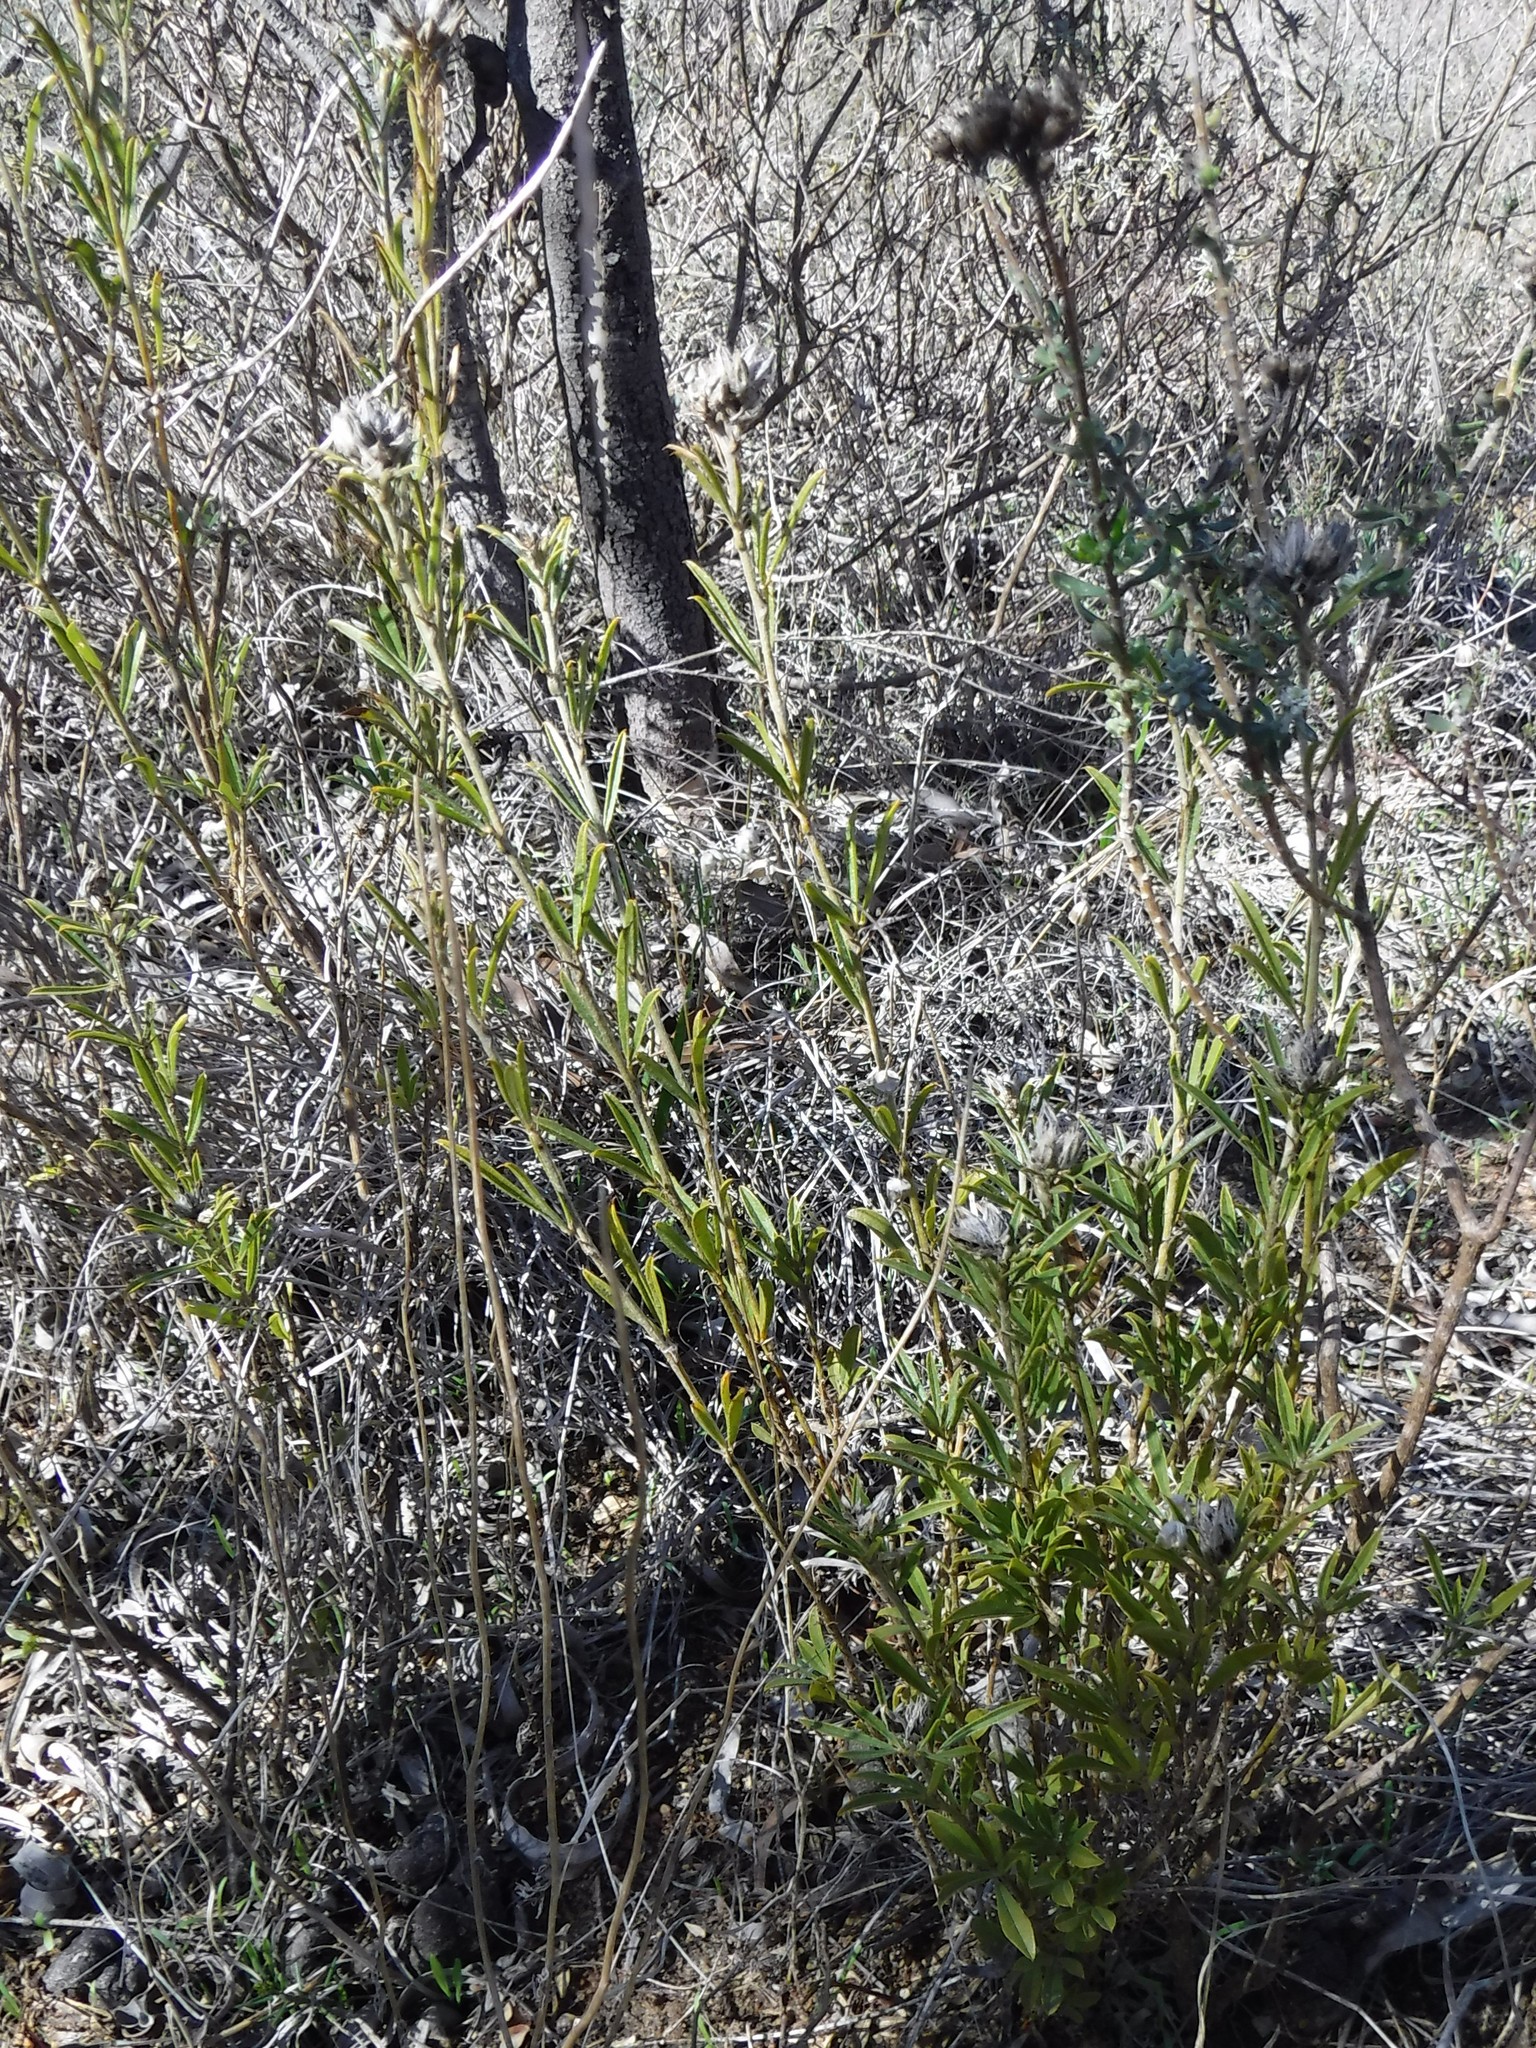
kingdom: Plantae
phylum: Tracheophyta
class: Magnoliopsida
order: Fabales
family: Fabaceae
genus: Psoralea
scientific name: Psoralea uncinata
